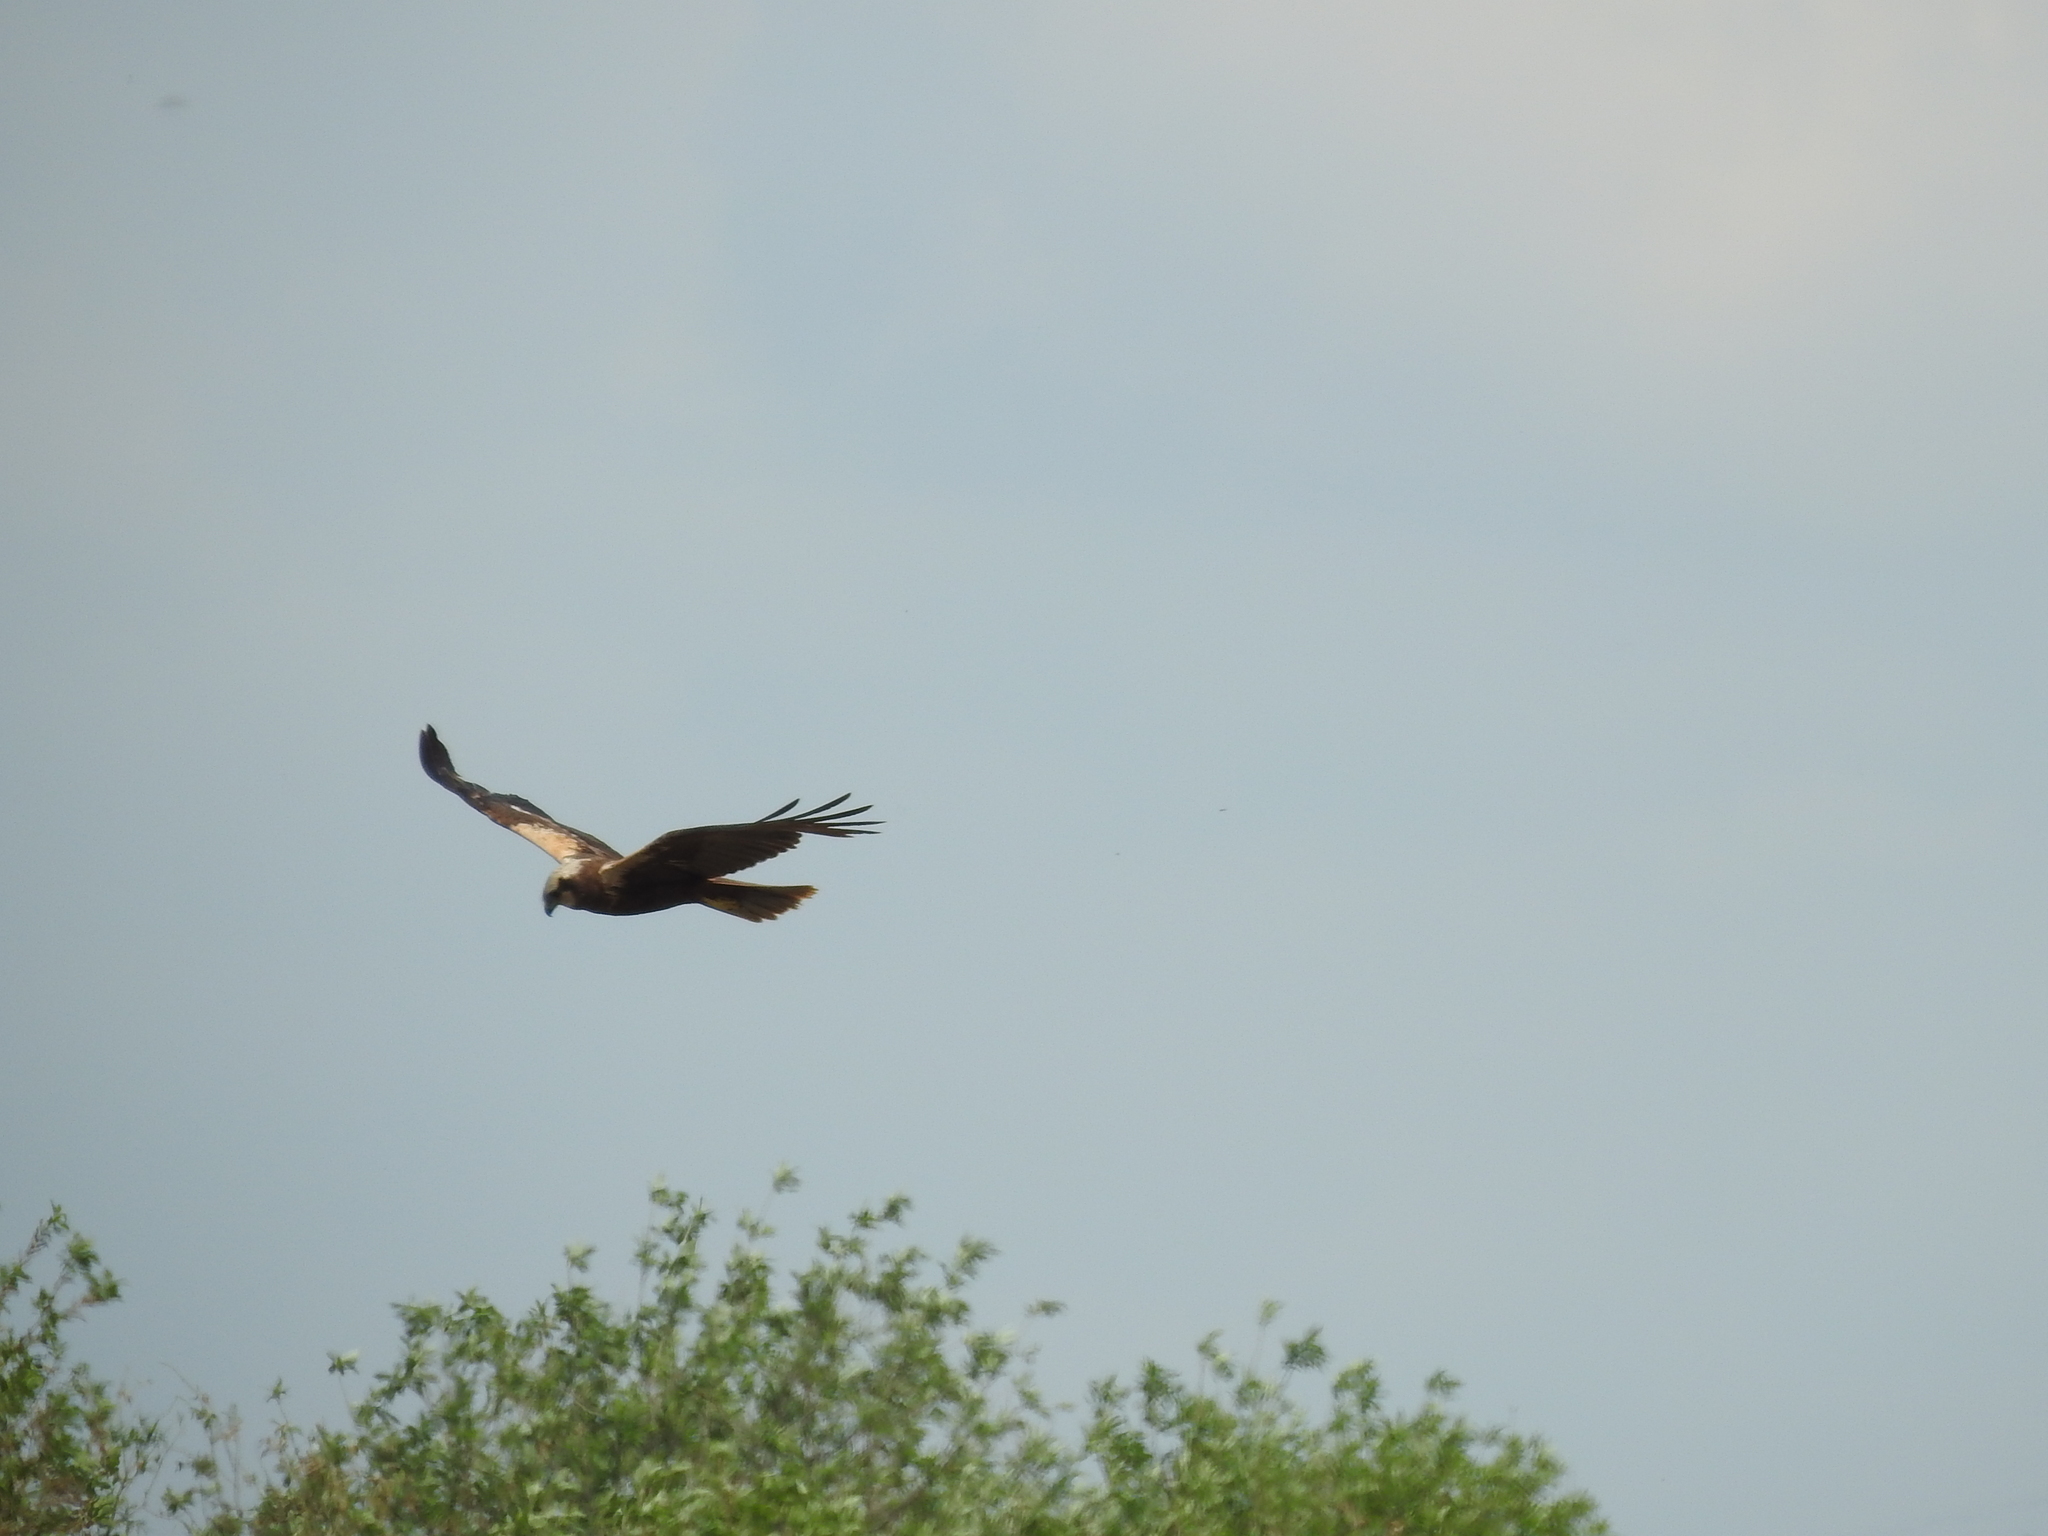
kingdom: Animalia
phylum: Chordata
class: Aves
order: Accipitriformes
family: Accipitridae
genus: Circus
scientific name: Circus aeruginosus
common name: Western marsh harrier
